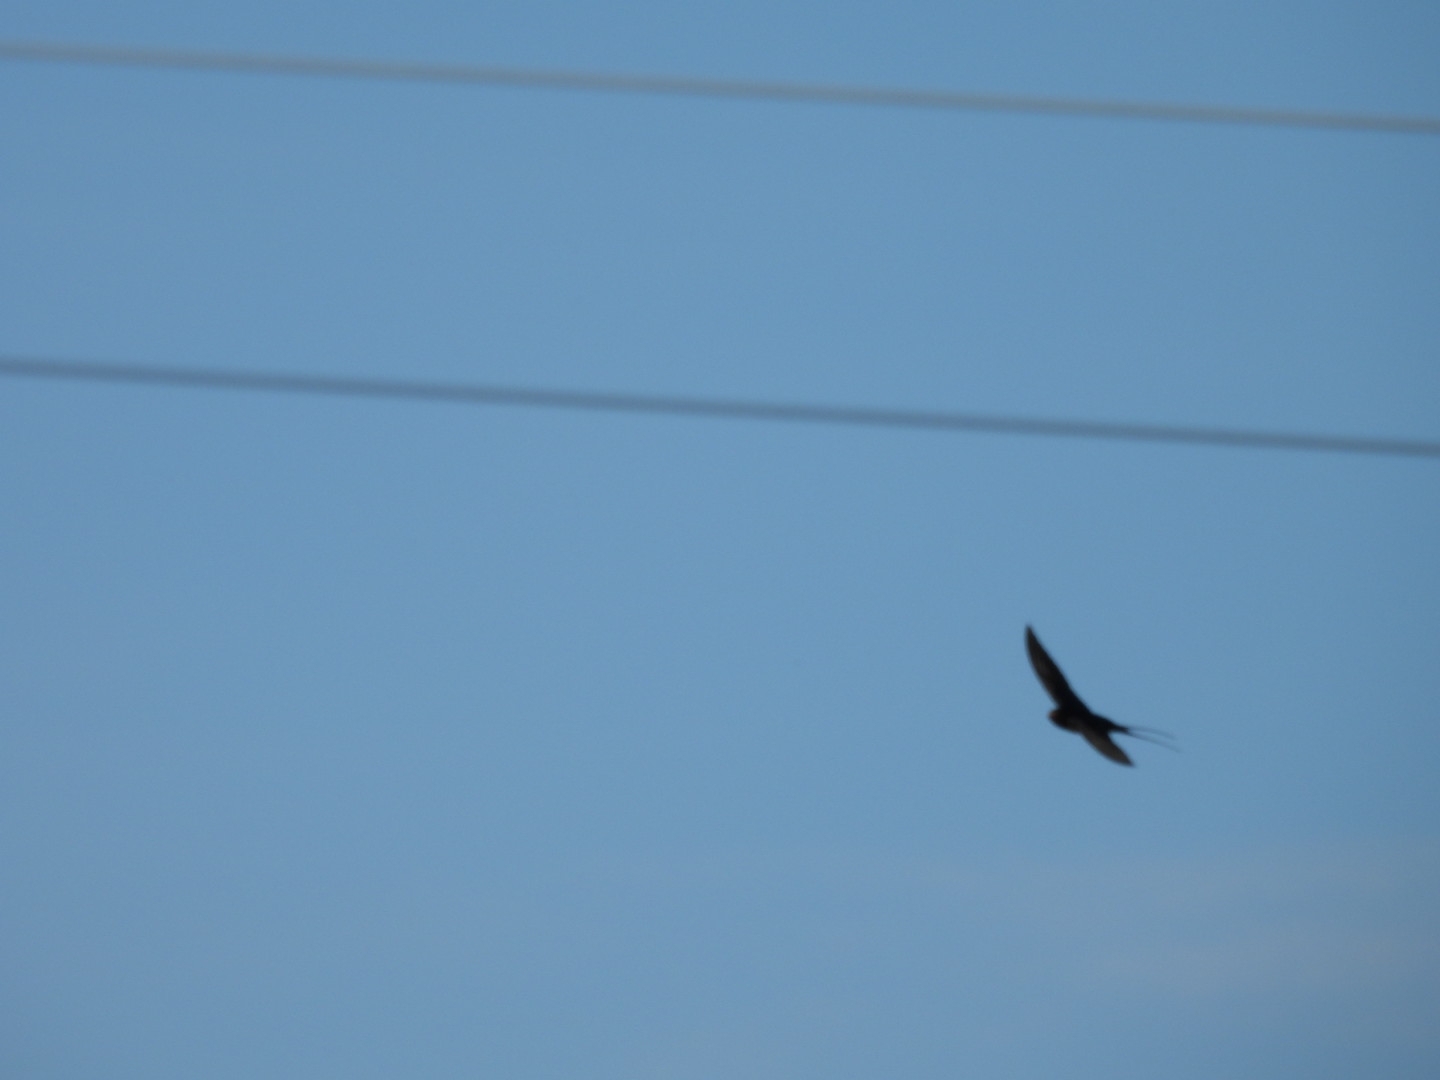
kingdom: Animalia
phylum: Chordata
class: Aves
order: Passeriformes
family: Hirundinidae
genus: Hirundo
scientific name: Hirundo rustica
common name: Barn swallow
